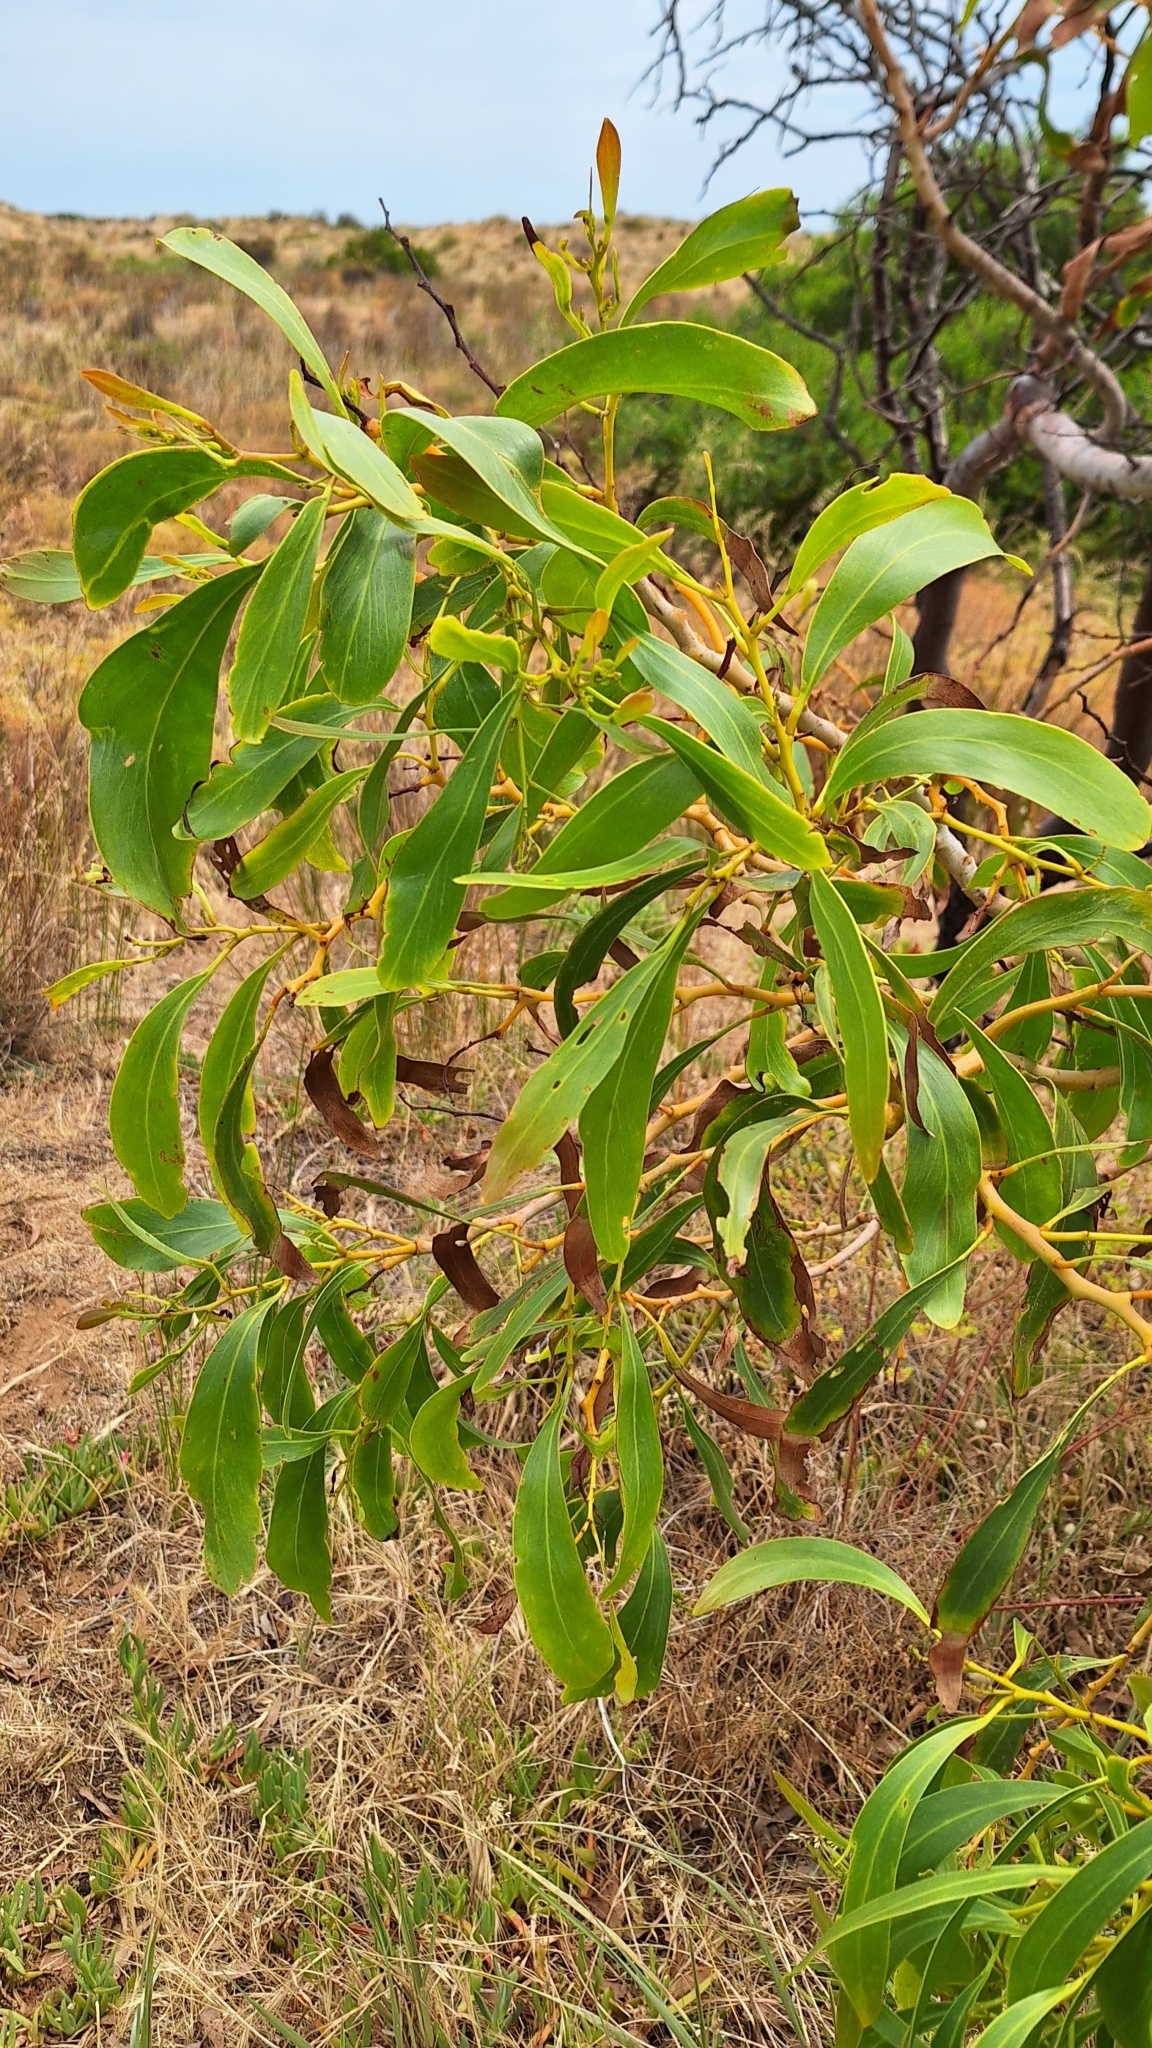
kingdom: Plantae
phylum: Tracheophyta
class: Magnoliopsida
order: Fabales
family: Fabaceae
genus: Acacia
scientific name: Acacia pycnantha
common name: Golden wattle
